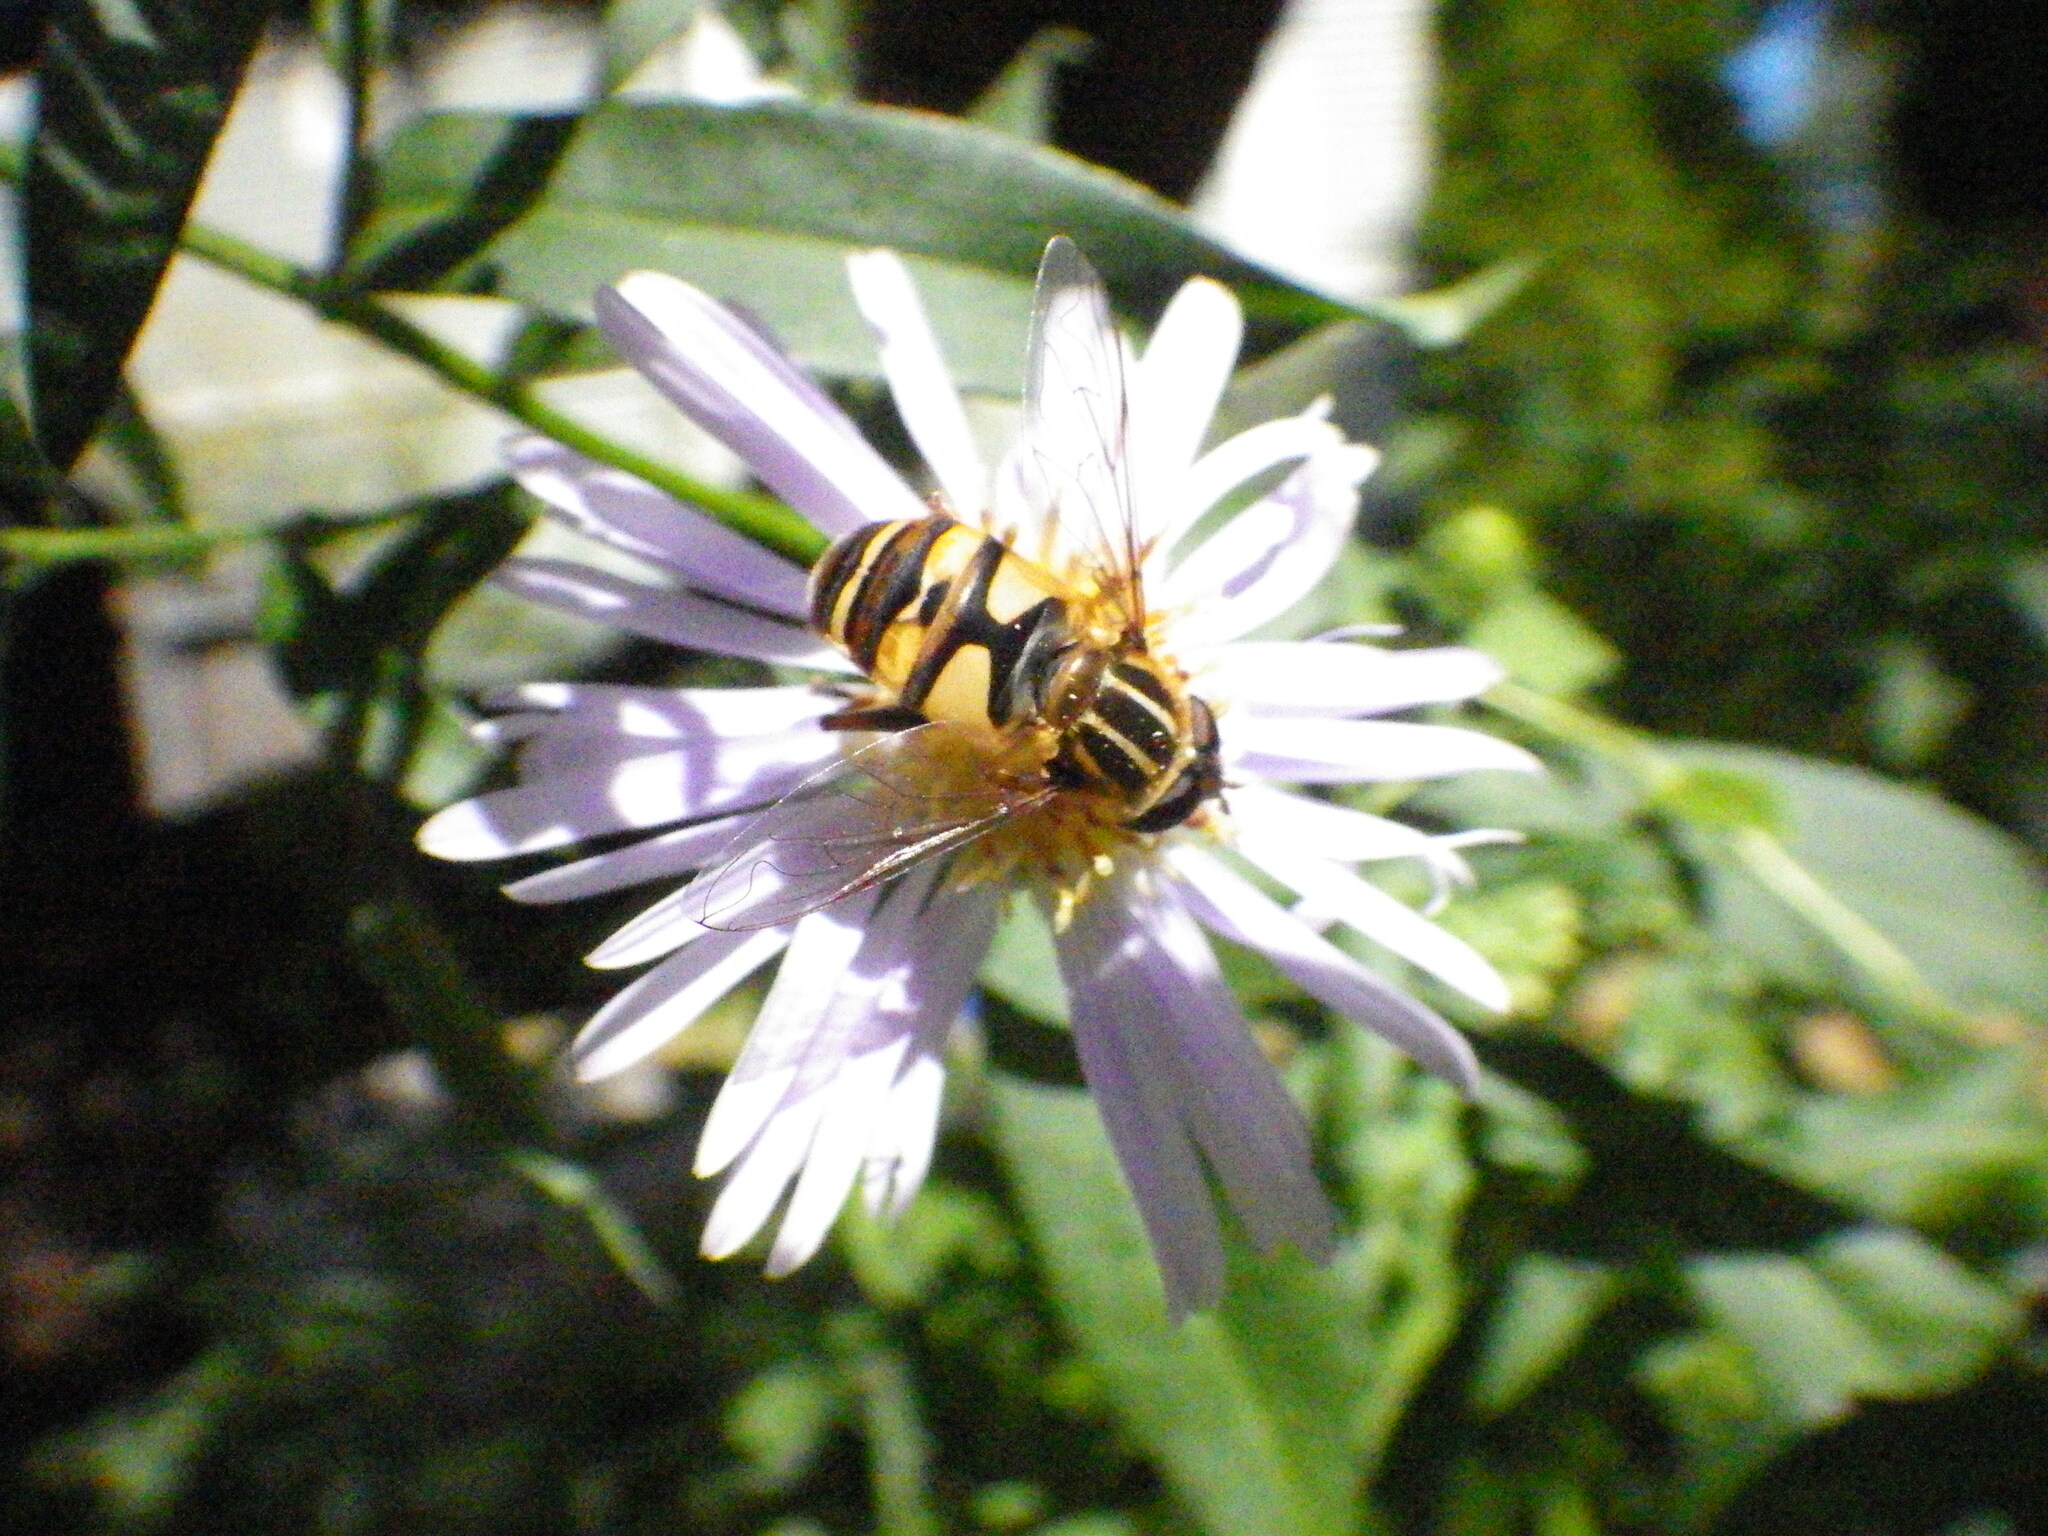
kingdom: Animalia
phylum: Arthropoda
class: Insecta
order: Diptera
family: Syrphidae
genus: Helophilus
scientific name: Helophilus fasciatus
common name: Narrow-headed marsh fly
